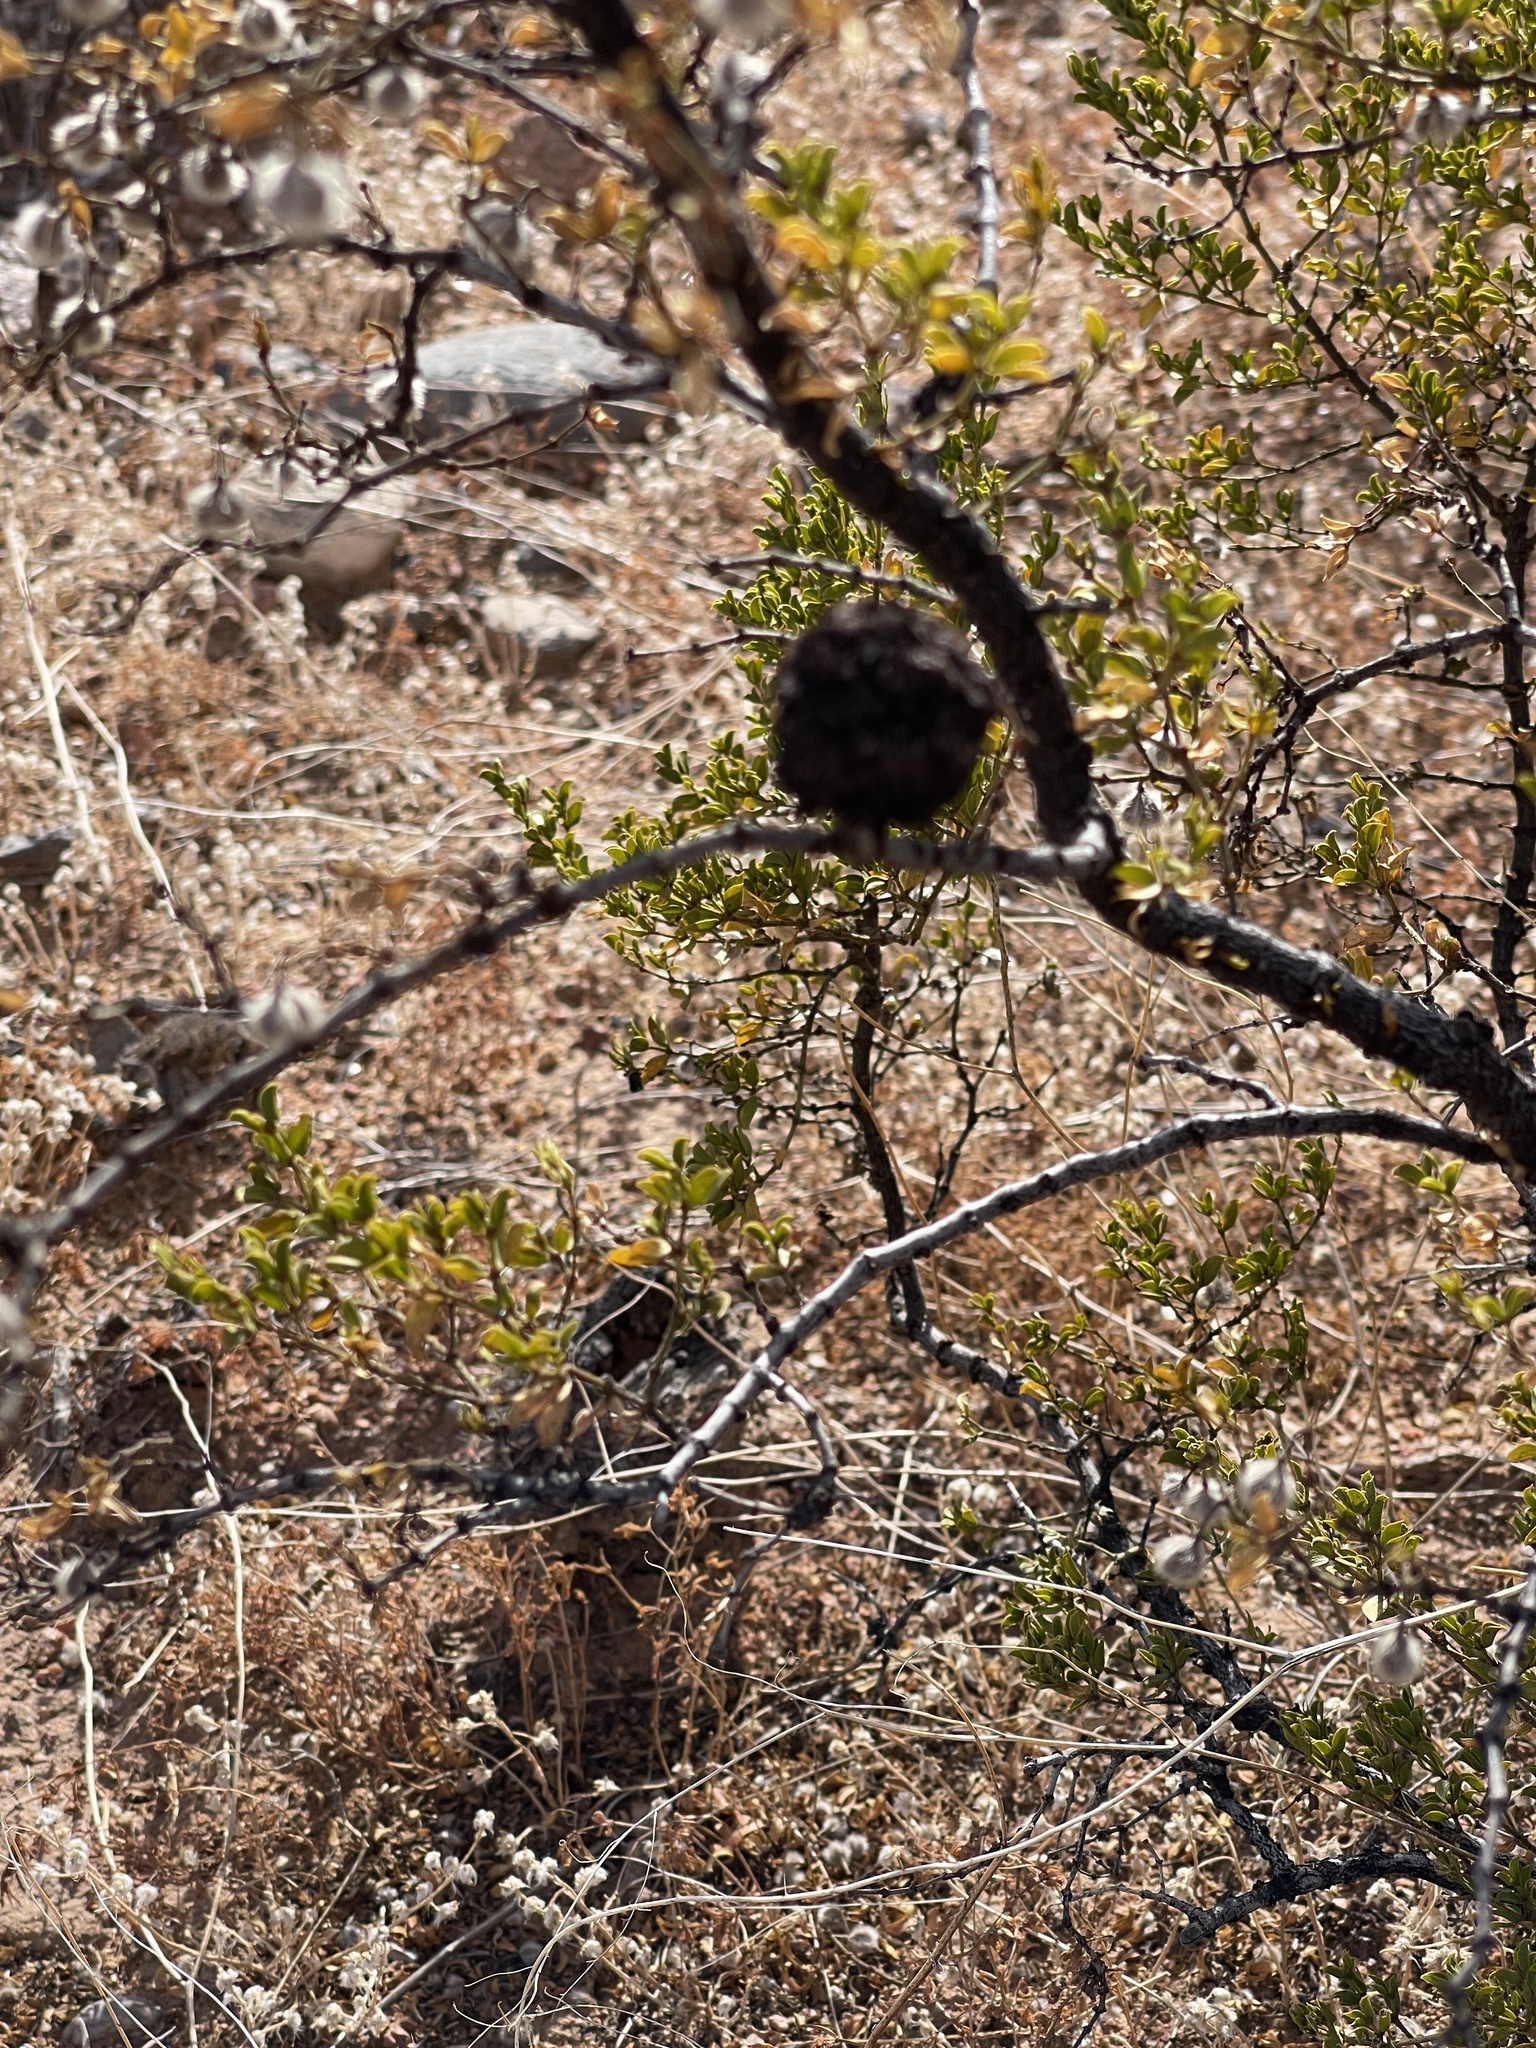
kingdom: Animalia
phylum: Arthropoda
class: Insecta
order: Diptera
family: Cecidomyiidae
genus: Asphondylia
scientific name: Asphondylia auripila
